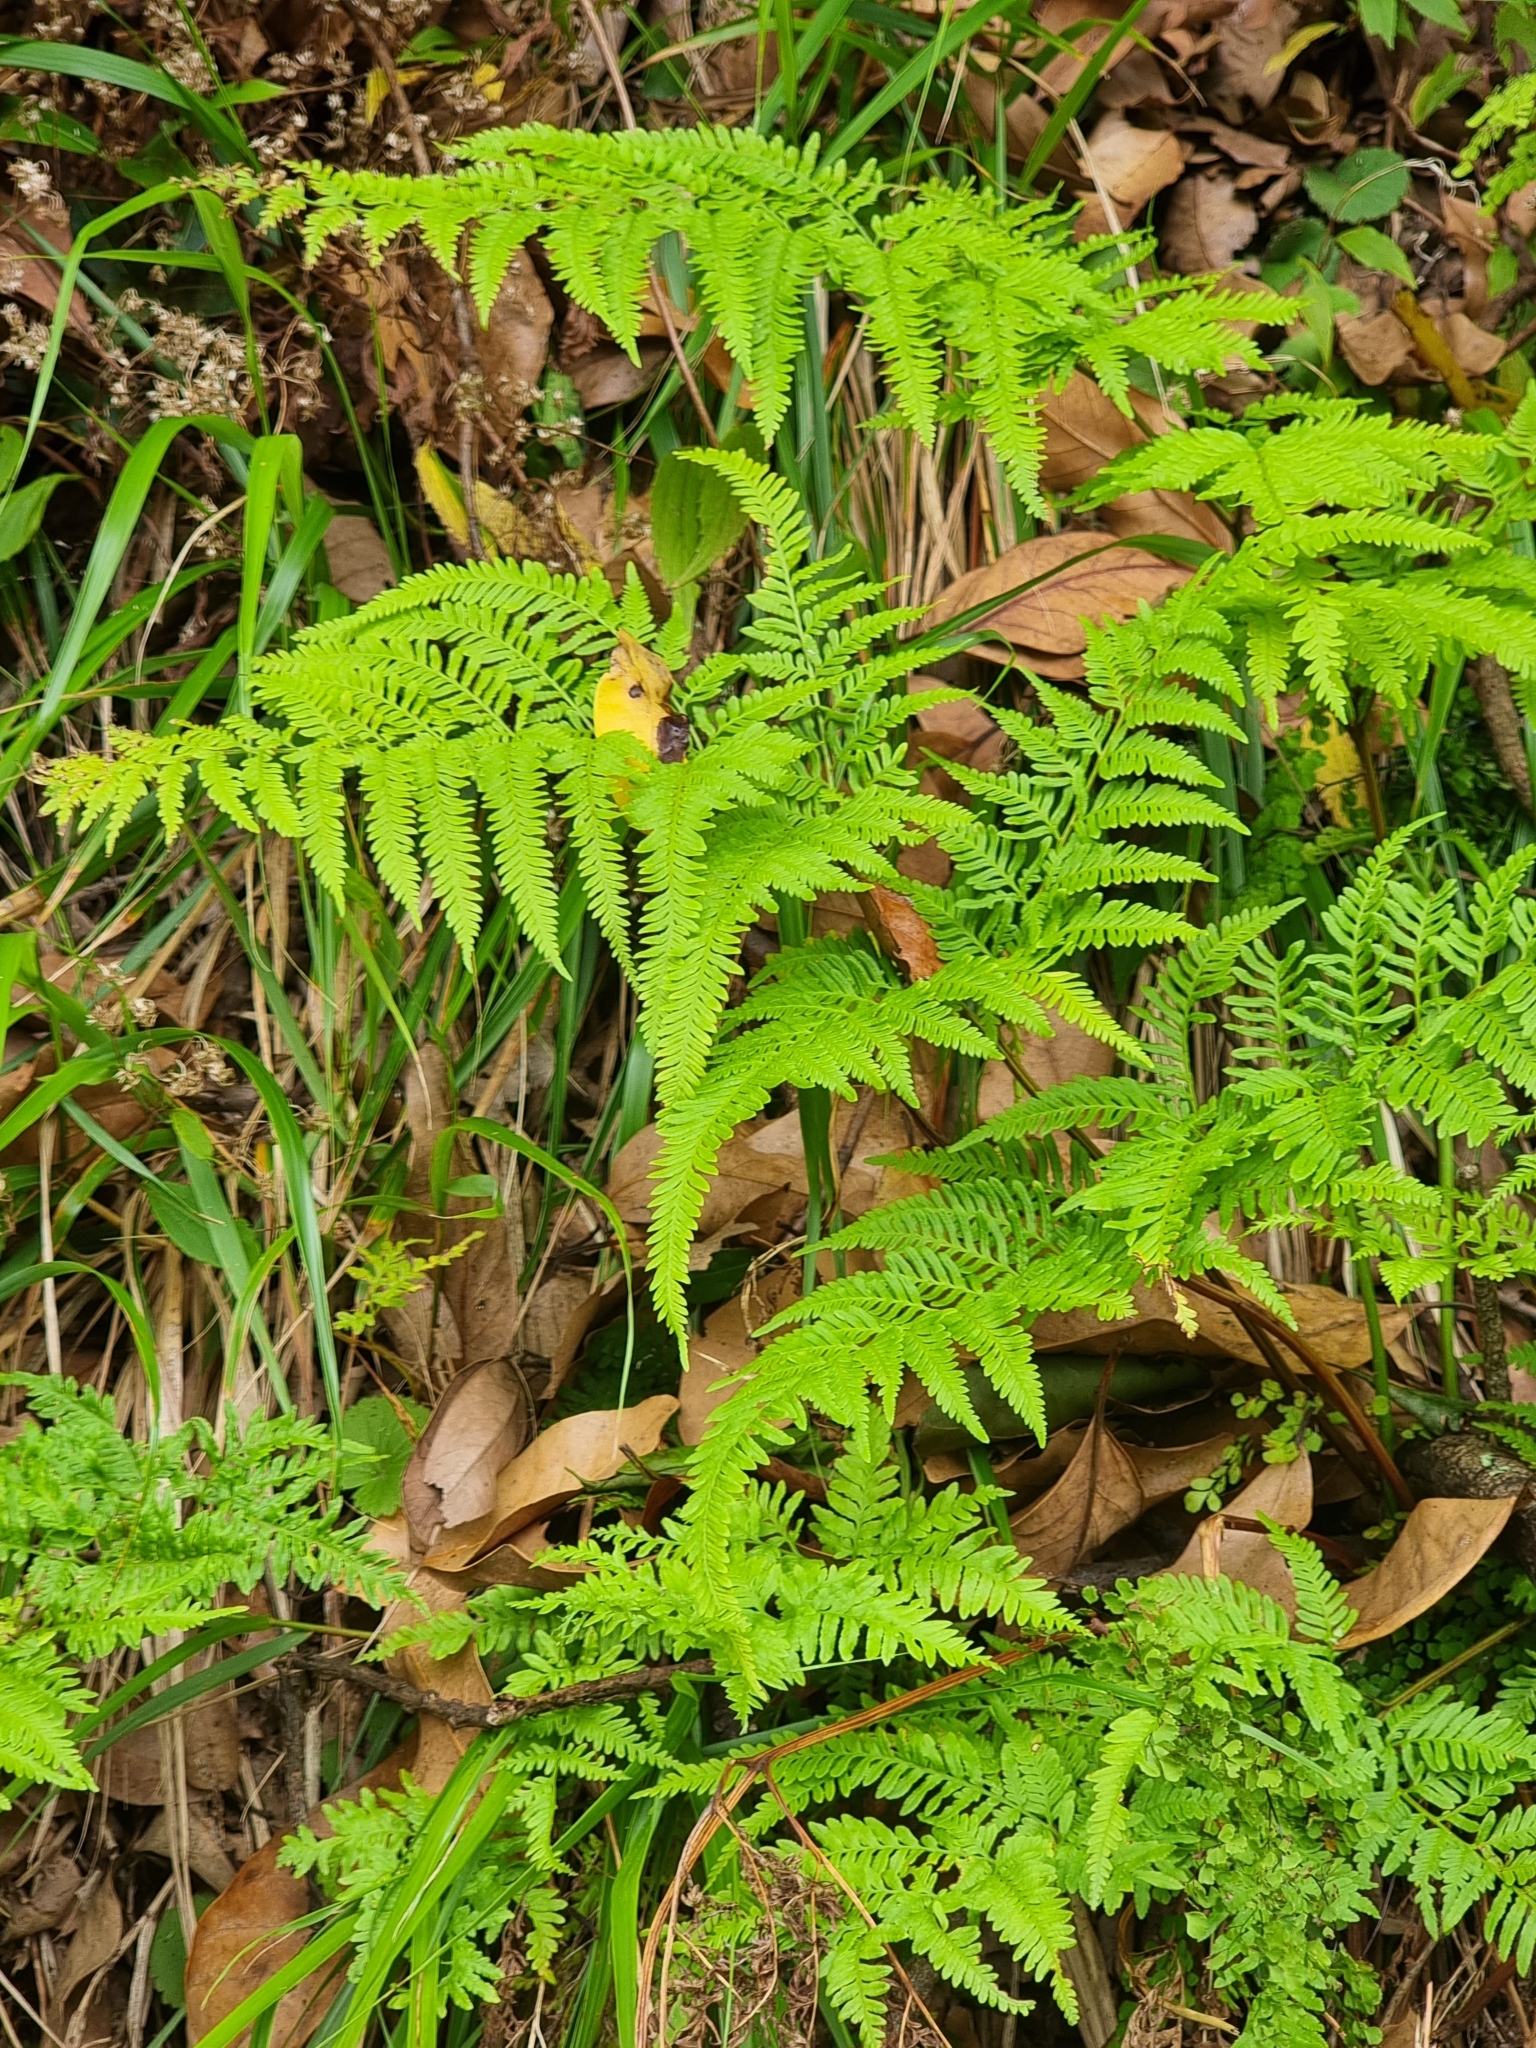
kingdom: Plantae
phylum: Tracheophyta
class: Polypodiopsida
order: Polypodiales
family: Pteridaceae
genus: Pteris
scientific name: Pteris tremula
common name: Australian brake
